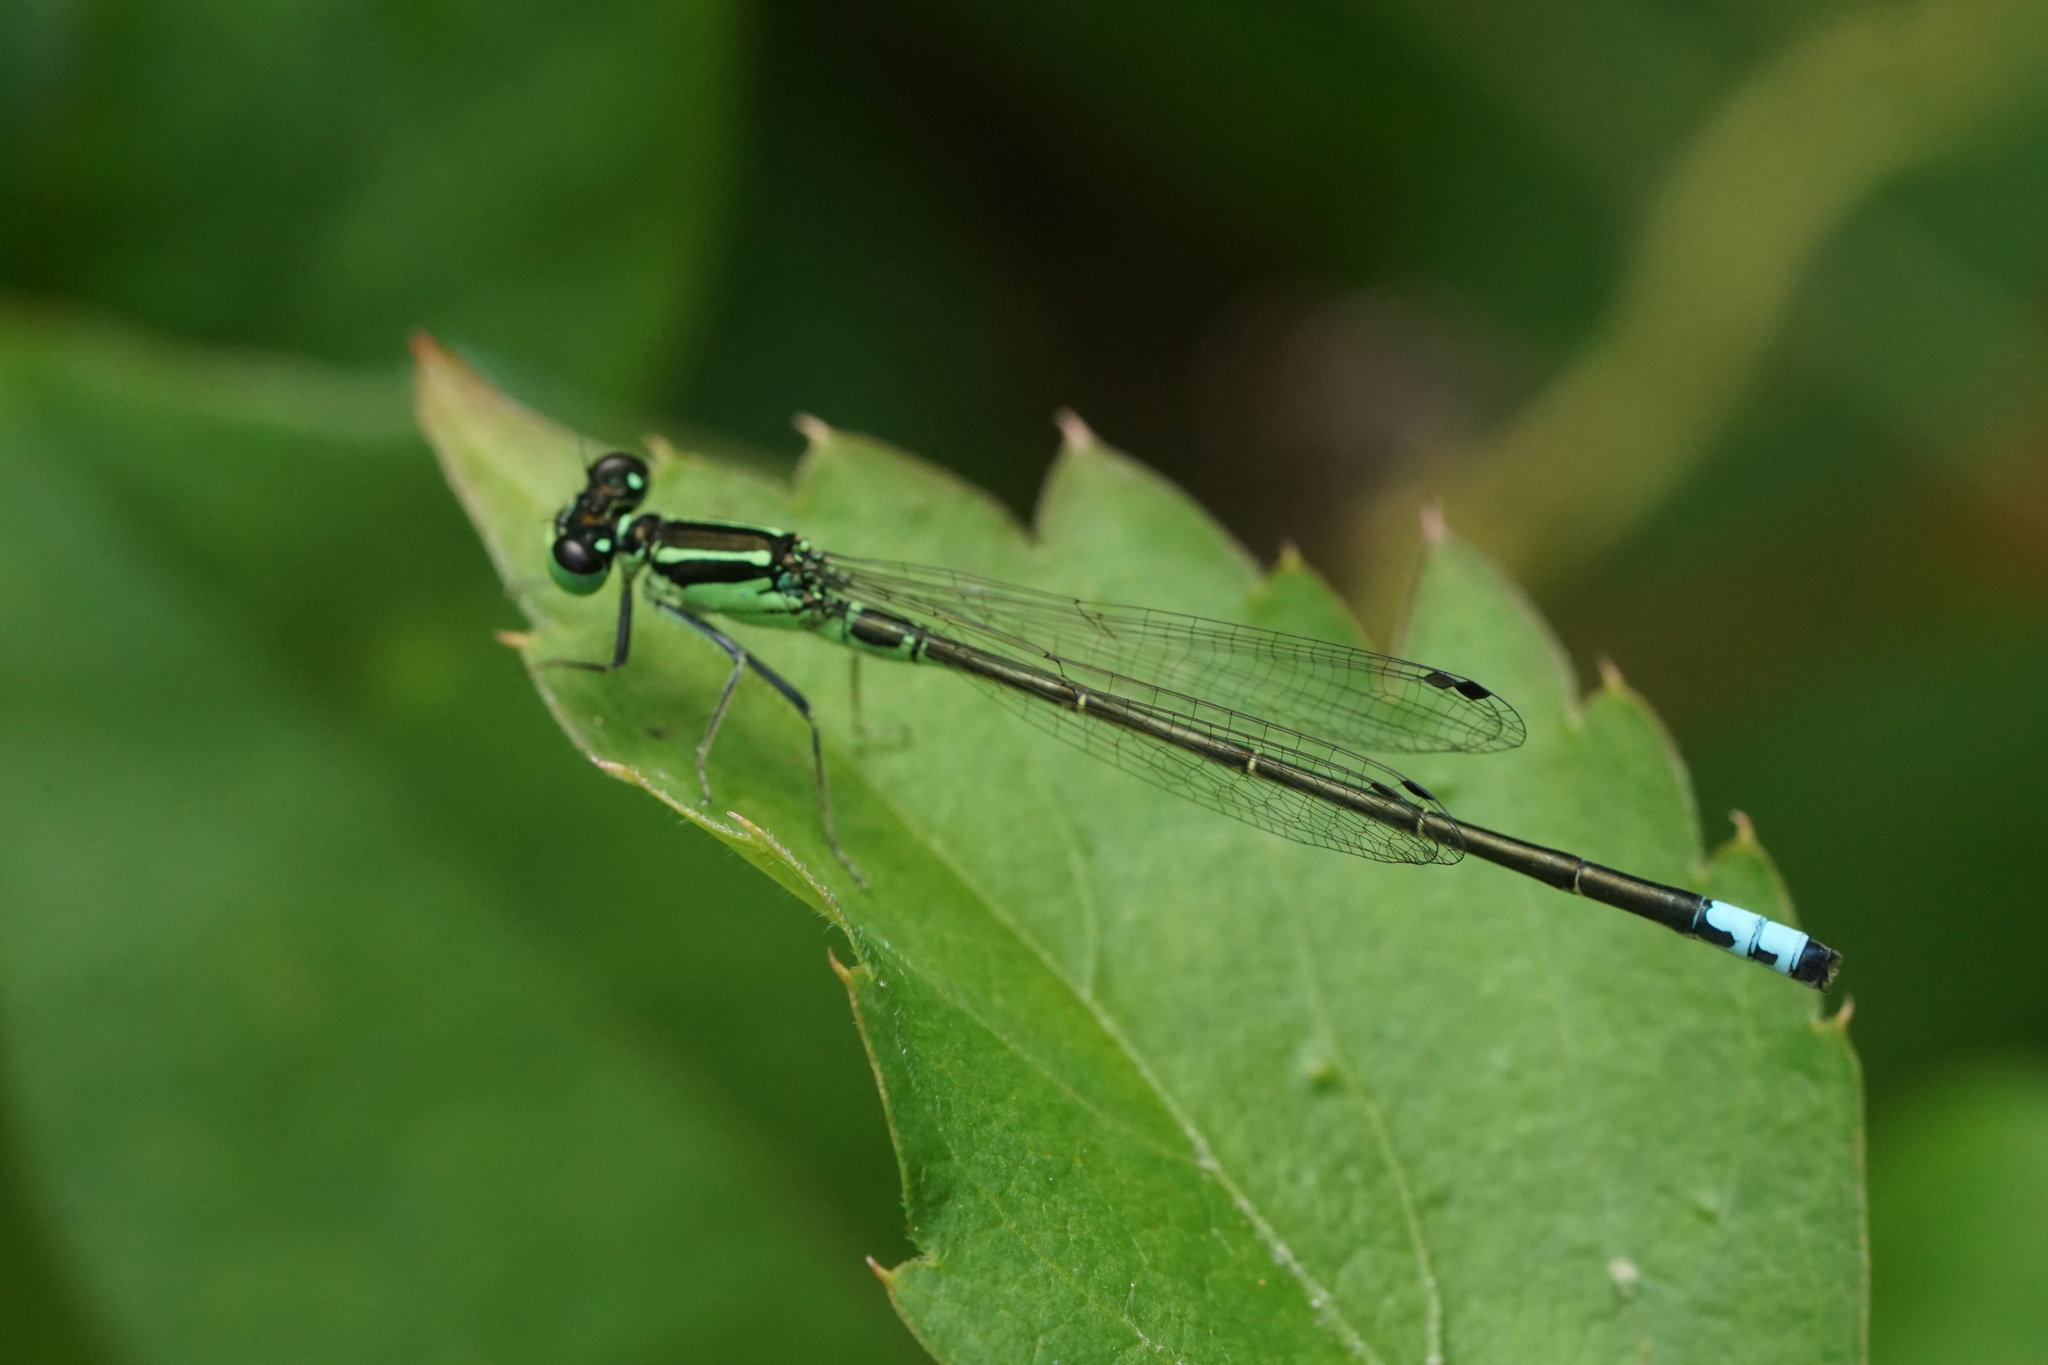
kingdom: Animalia
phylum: Arthropoda
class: Insecta
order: Odonata
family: Coenagrionidae
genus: Ischnura
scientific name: Ischnura verticalis
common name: Eastern forktail
